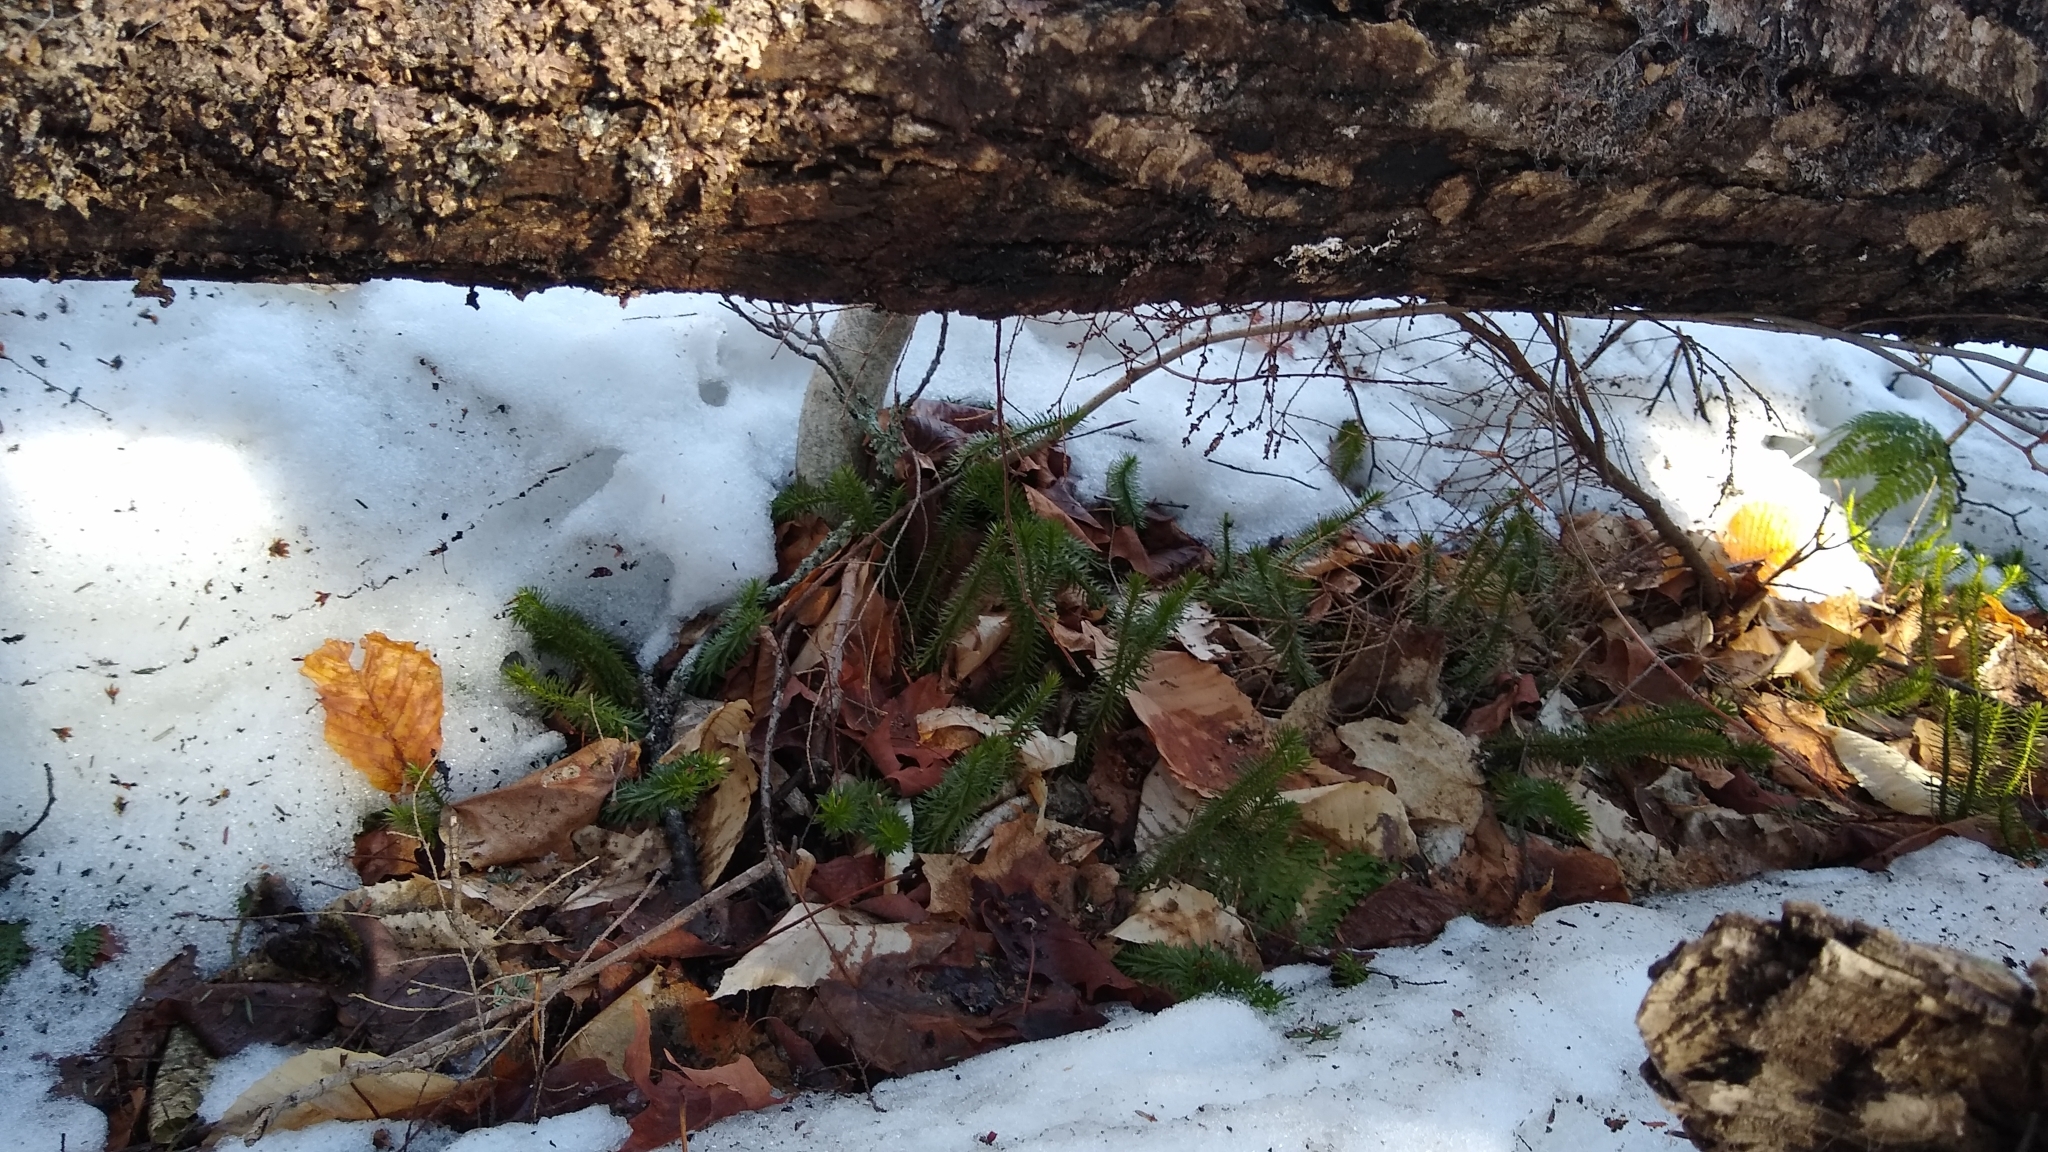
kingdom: Plantae
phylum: Tracheophyta
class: Lycopodiopsida
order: Lycopodiales
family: Lycopodiaceae
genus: Huperzia
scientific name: Huperzia lucidula
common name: Shining clubmoss
